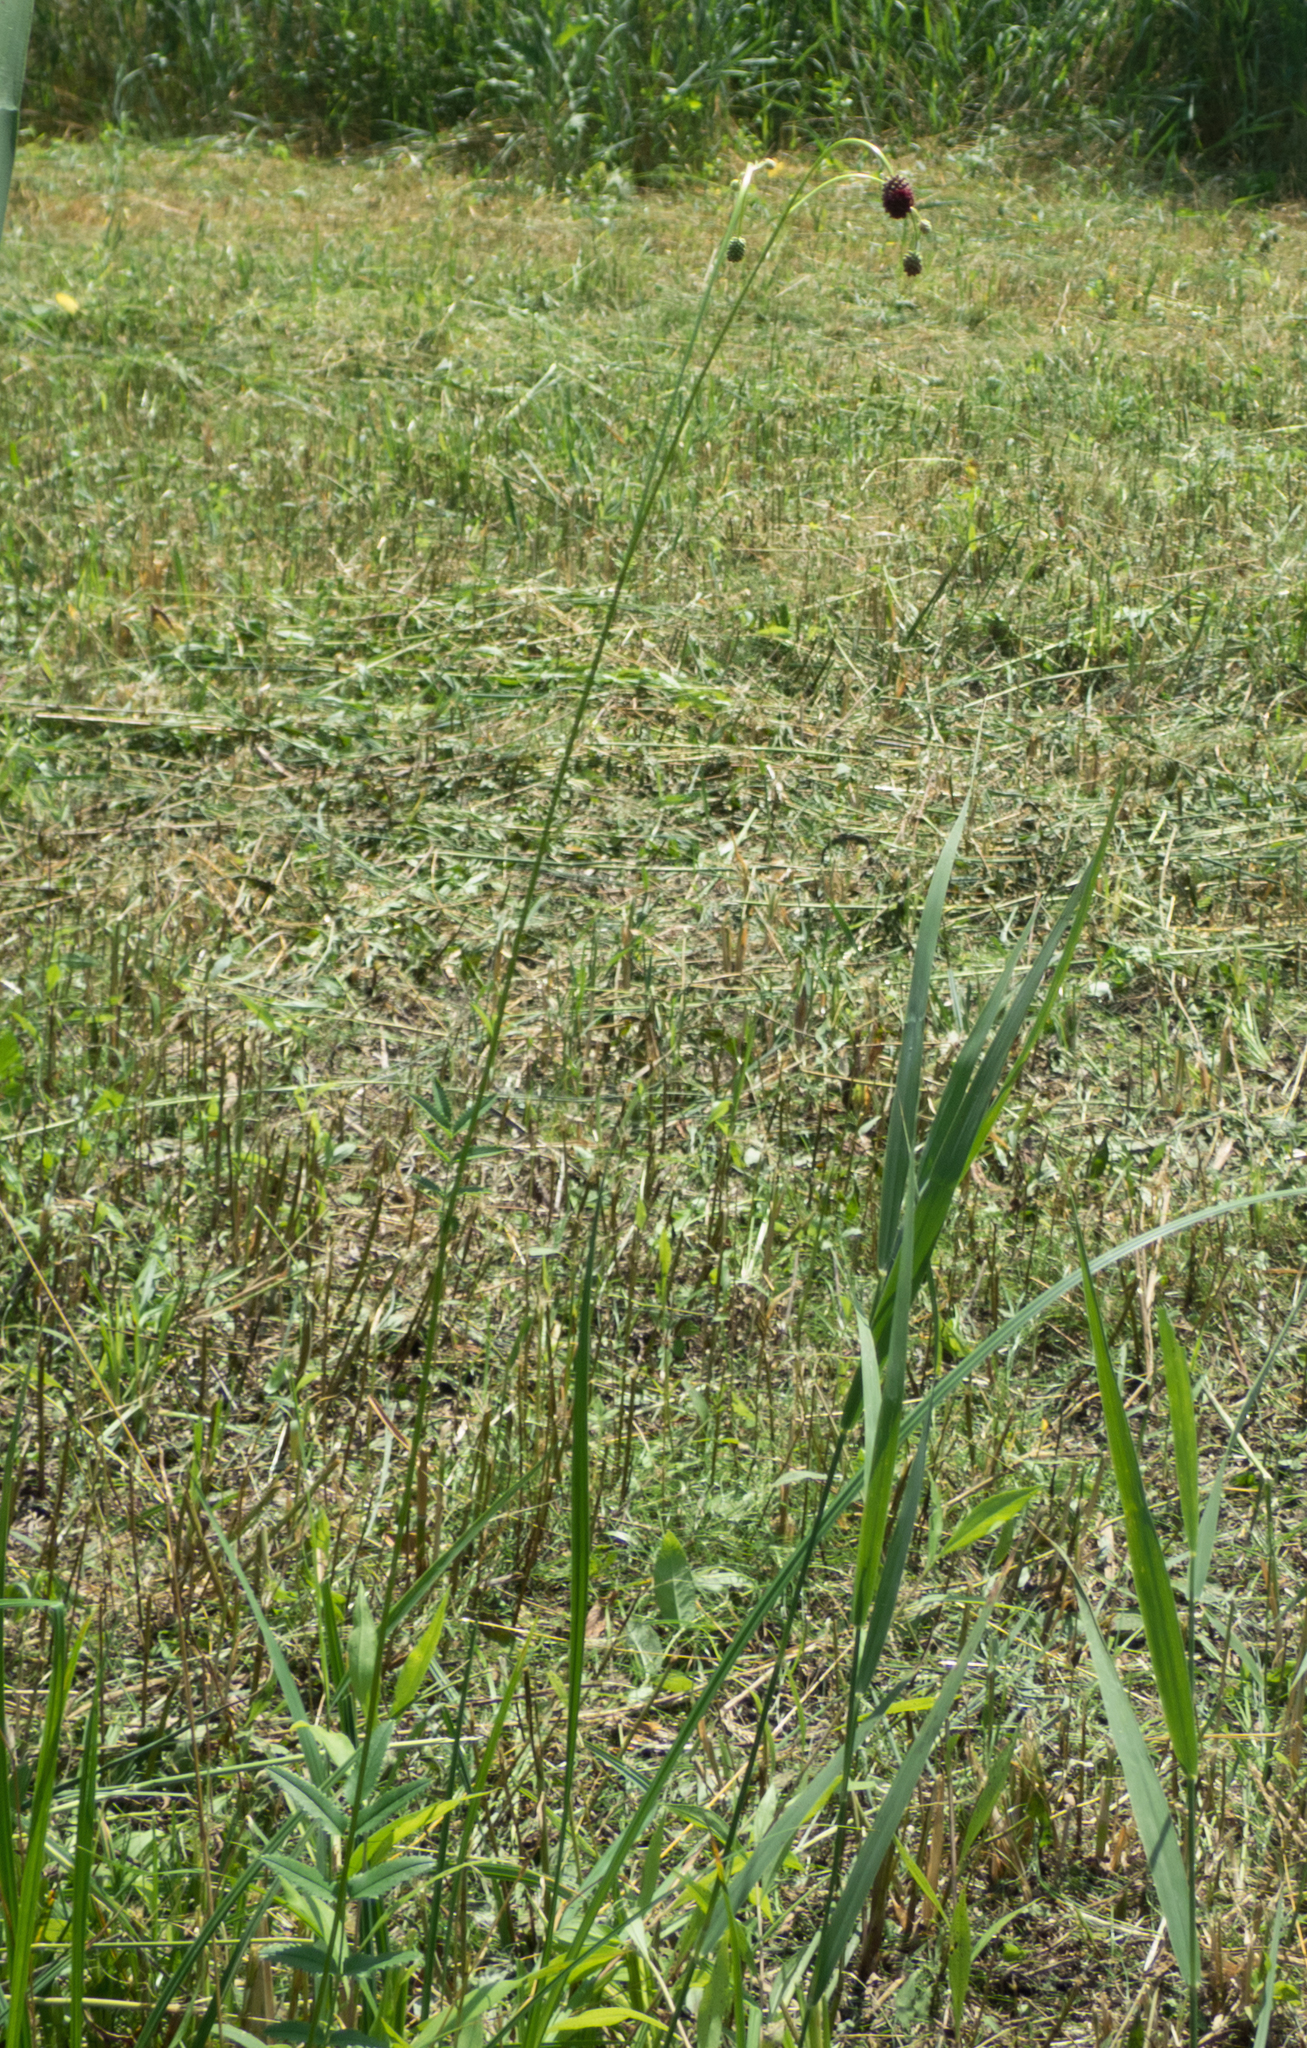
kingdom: Plantae
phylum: Tracheophyta
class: Magnoliopsida
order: Rosales
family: Rosaceae
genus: Sanguisorba
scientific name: Sanguisorba officinalis
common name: Great burnet
